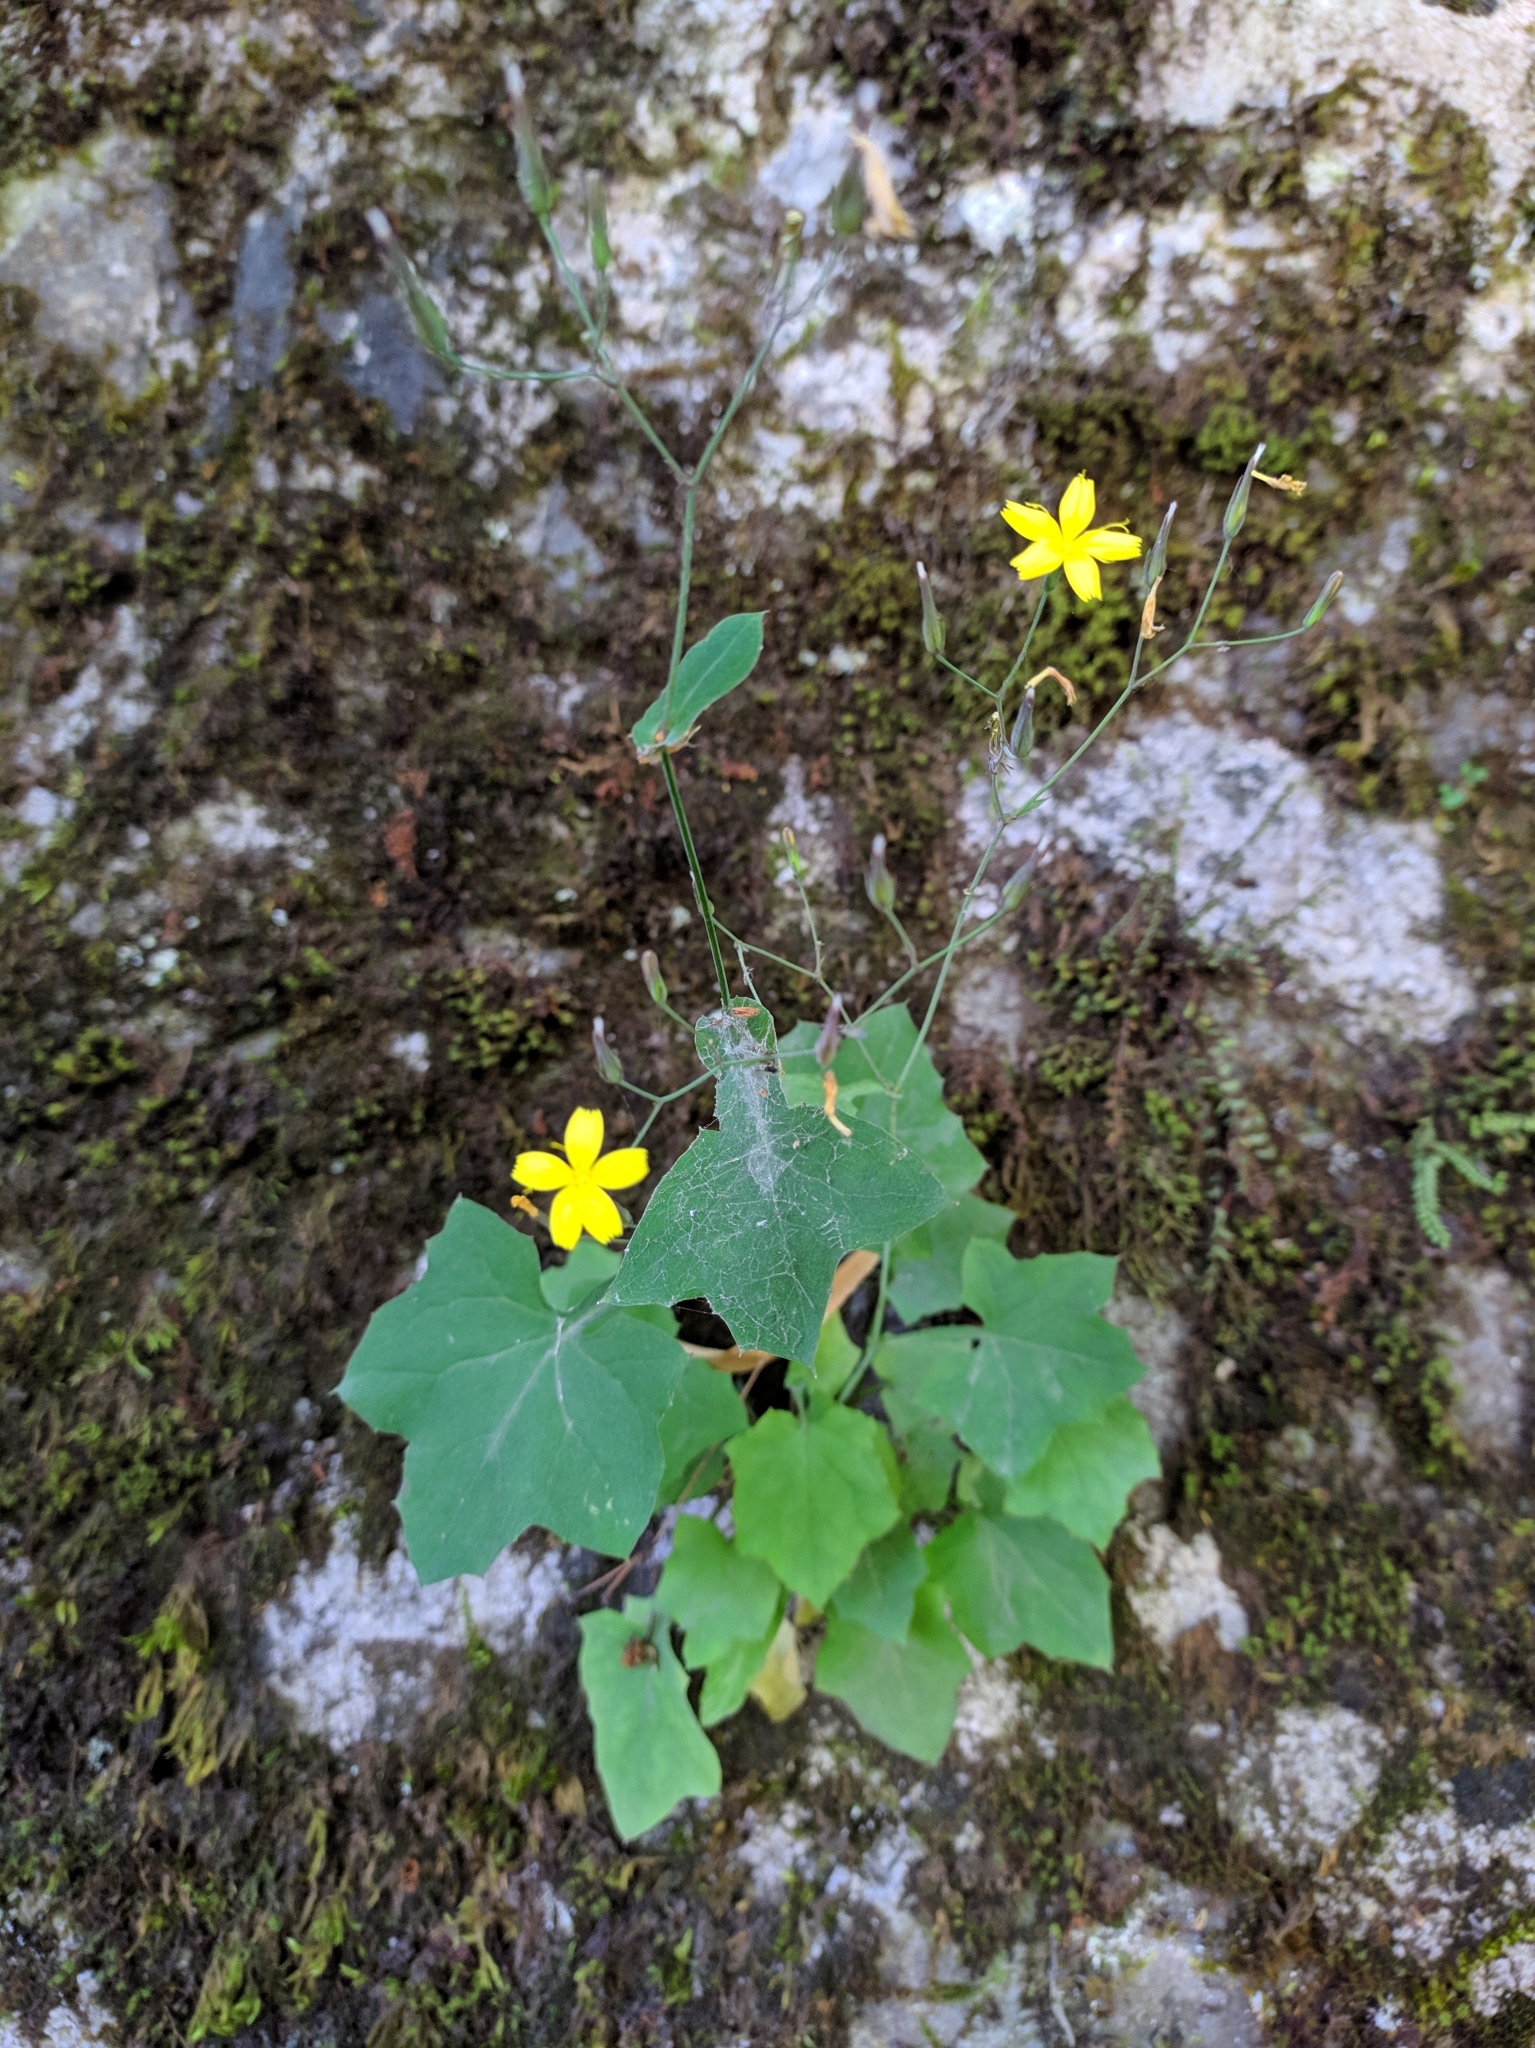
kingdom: Plantae
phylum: Tracheophyta
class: Magnoliopsida
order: Asterales
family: Asteraceae
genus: Mycelis
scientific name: Mycelis muralis
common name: Wall lettuce
